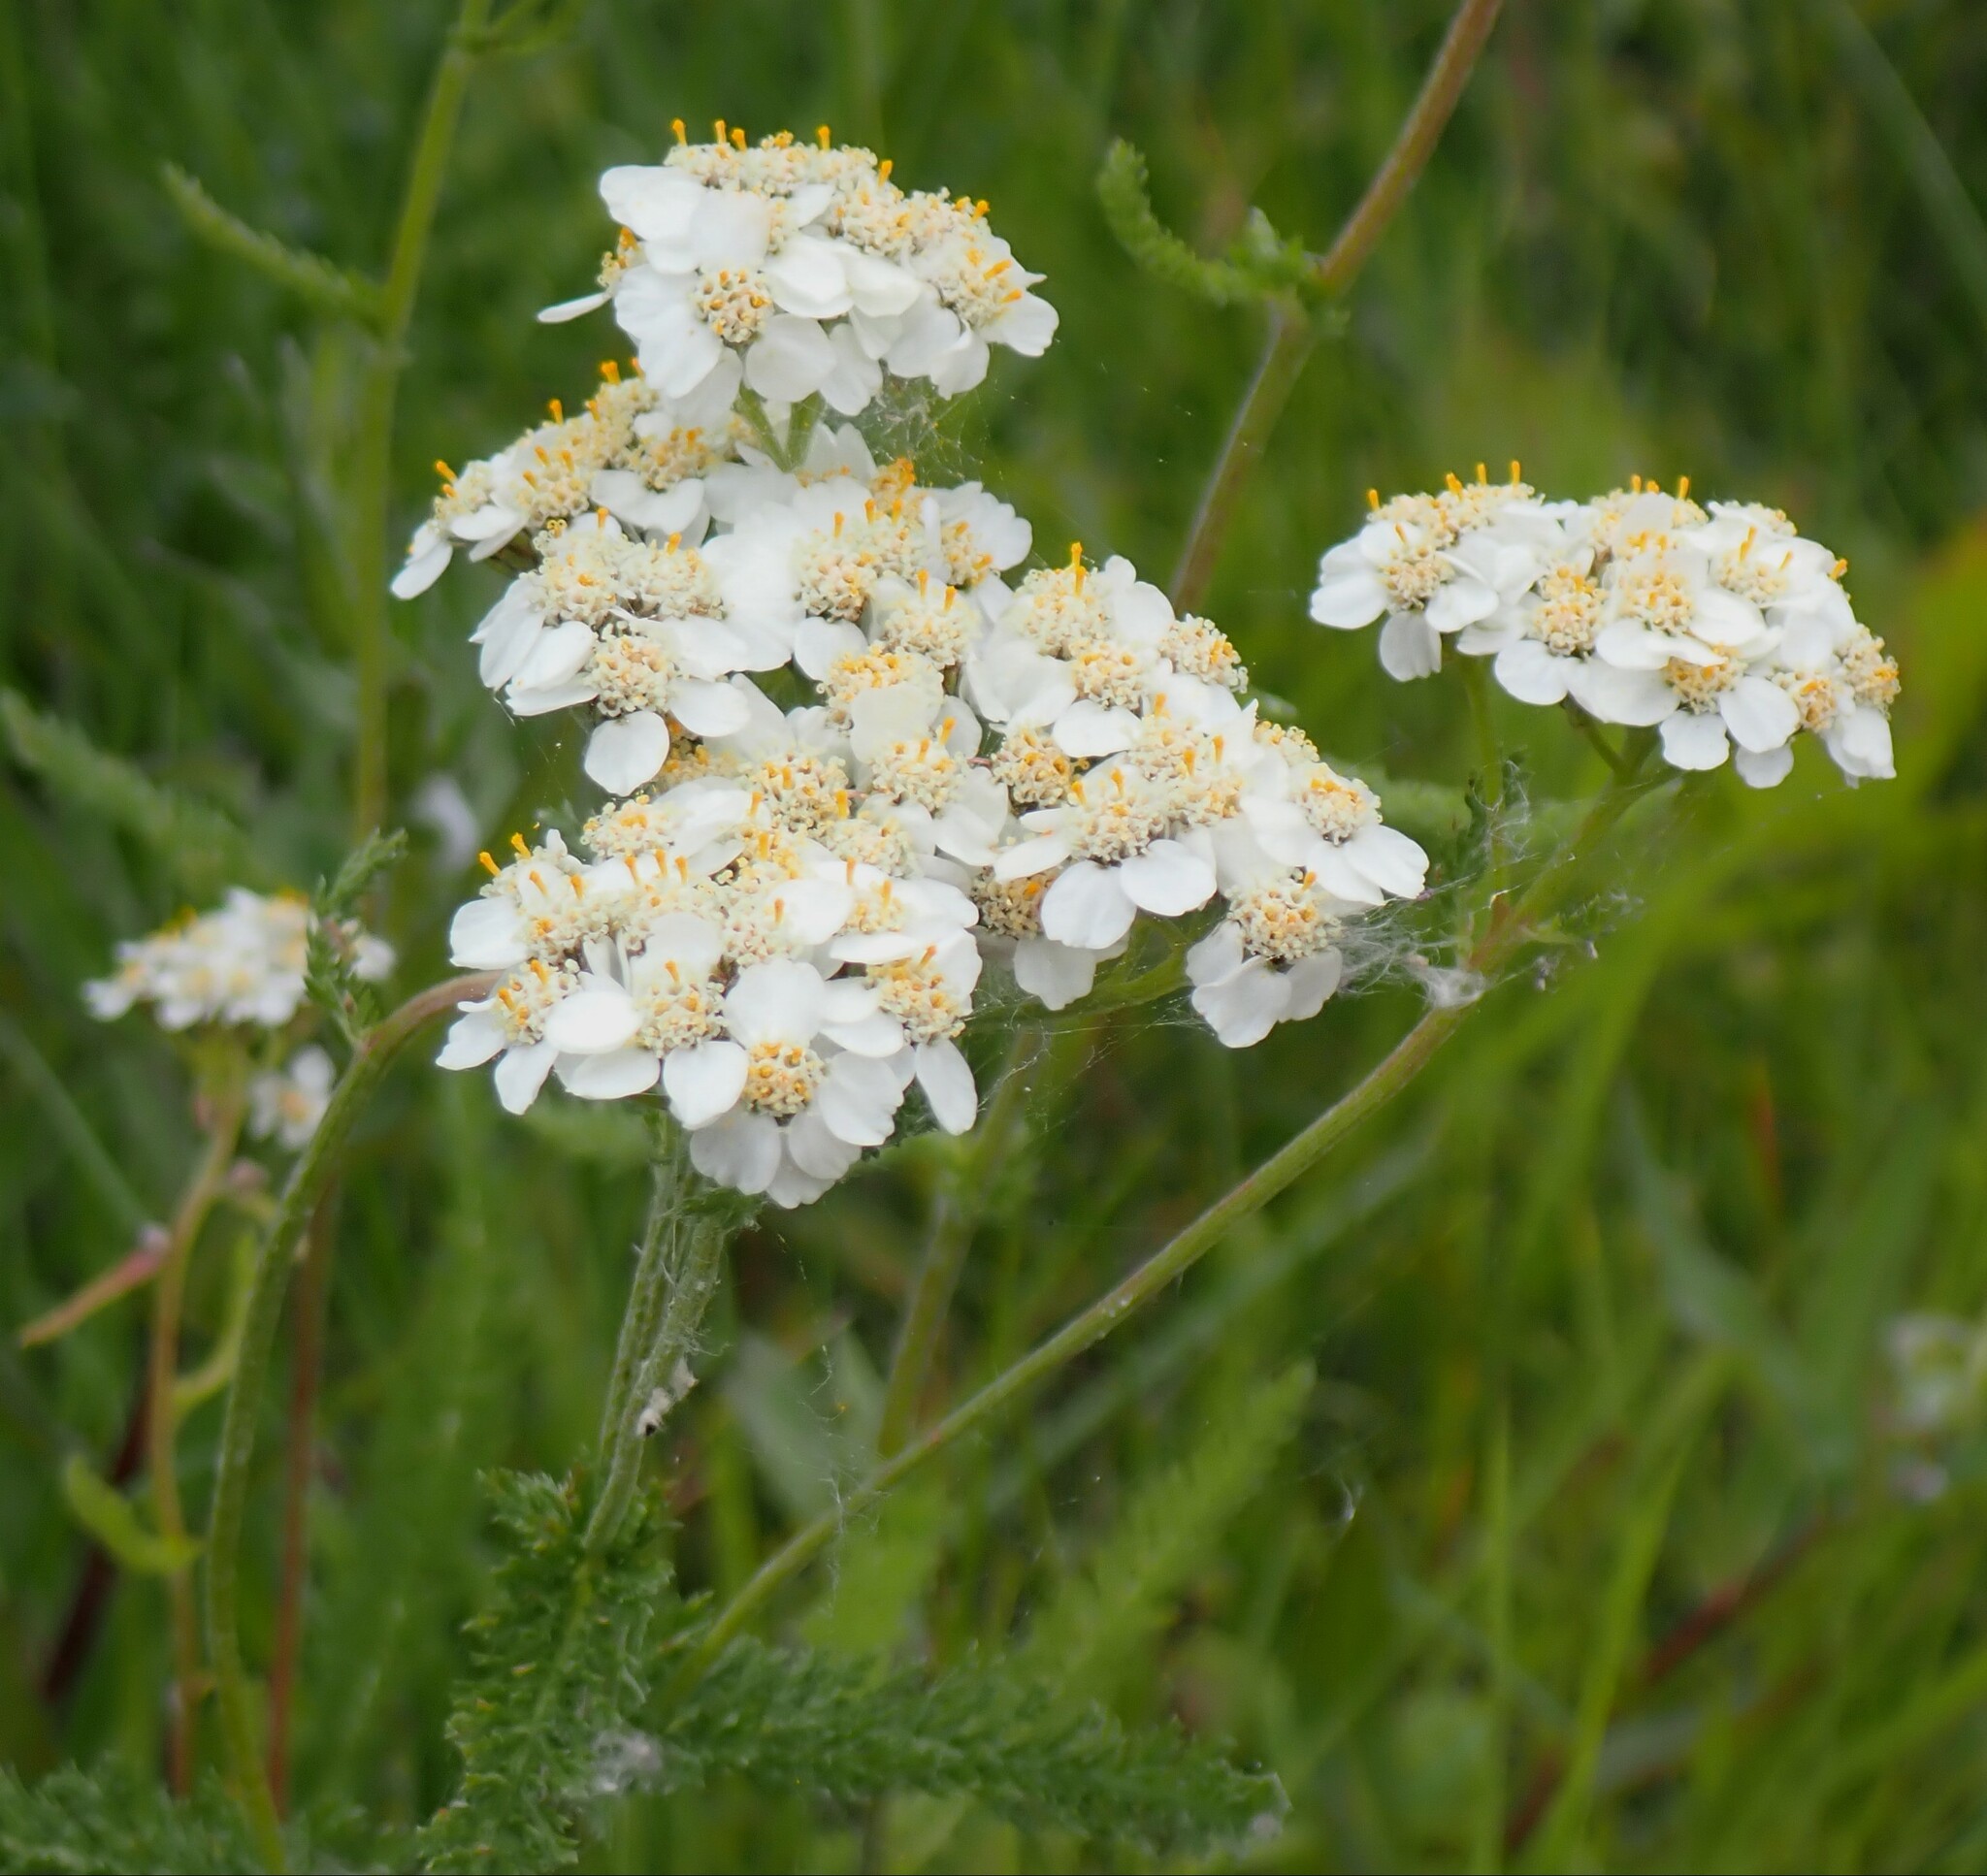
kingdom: Plantae
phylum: Tracheophyta
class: Magnoliopsida
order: Asterales
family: Asteraceae
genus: Achillea
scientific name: Achillea millefolium
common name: Yarrow
